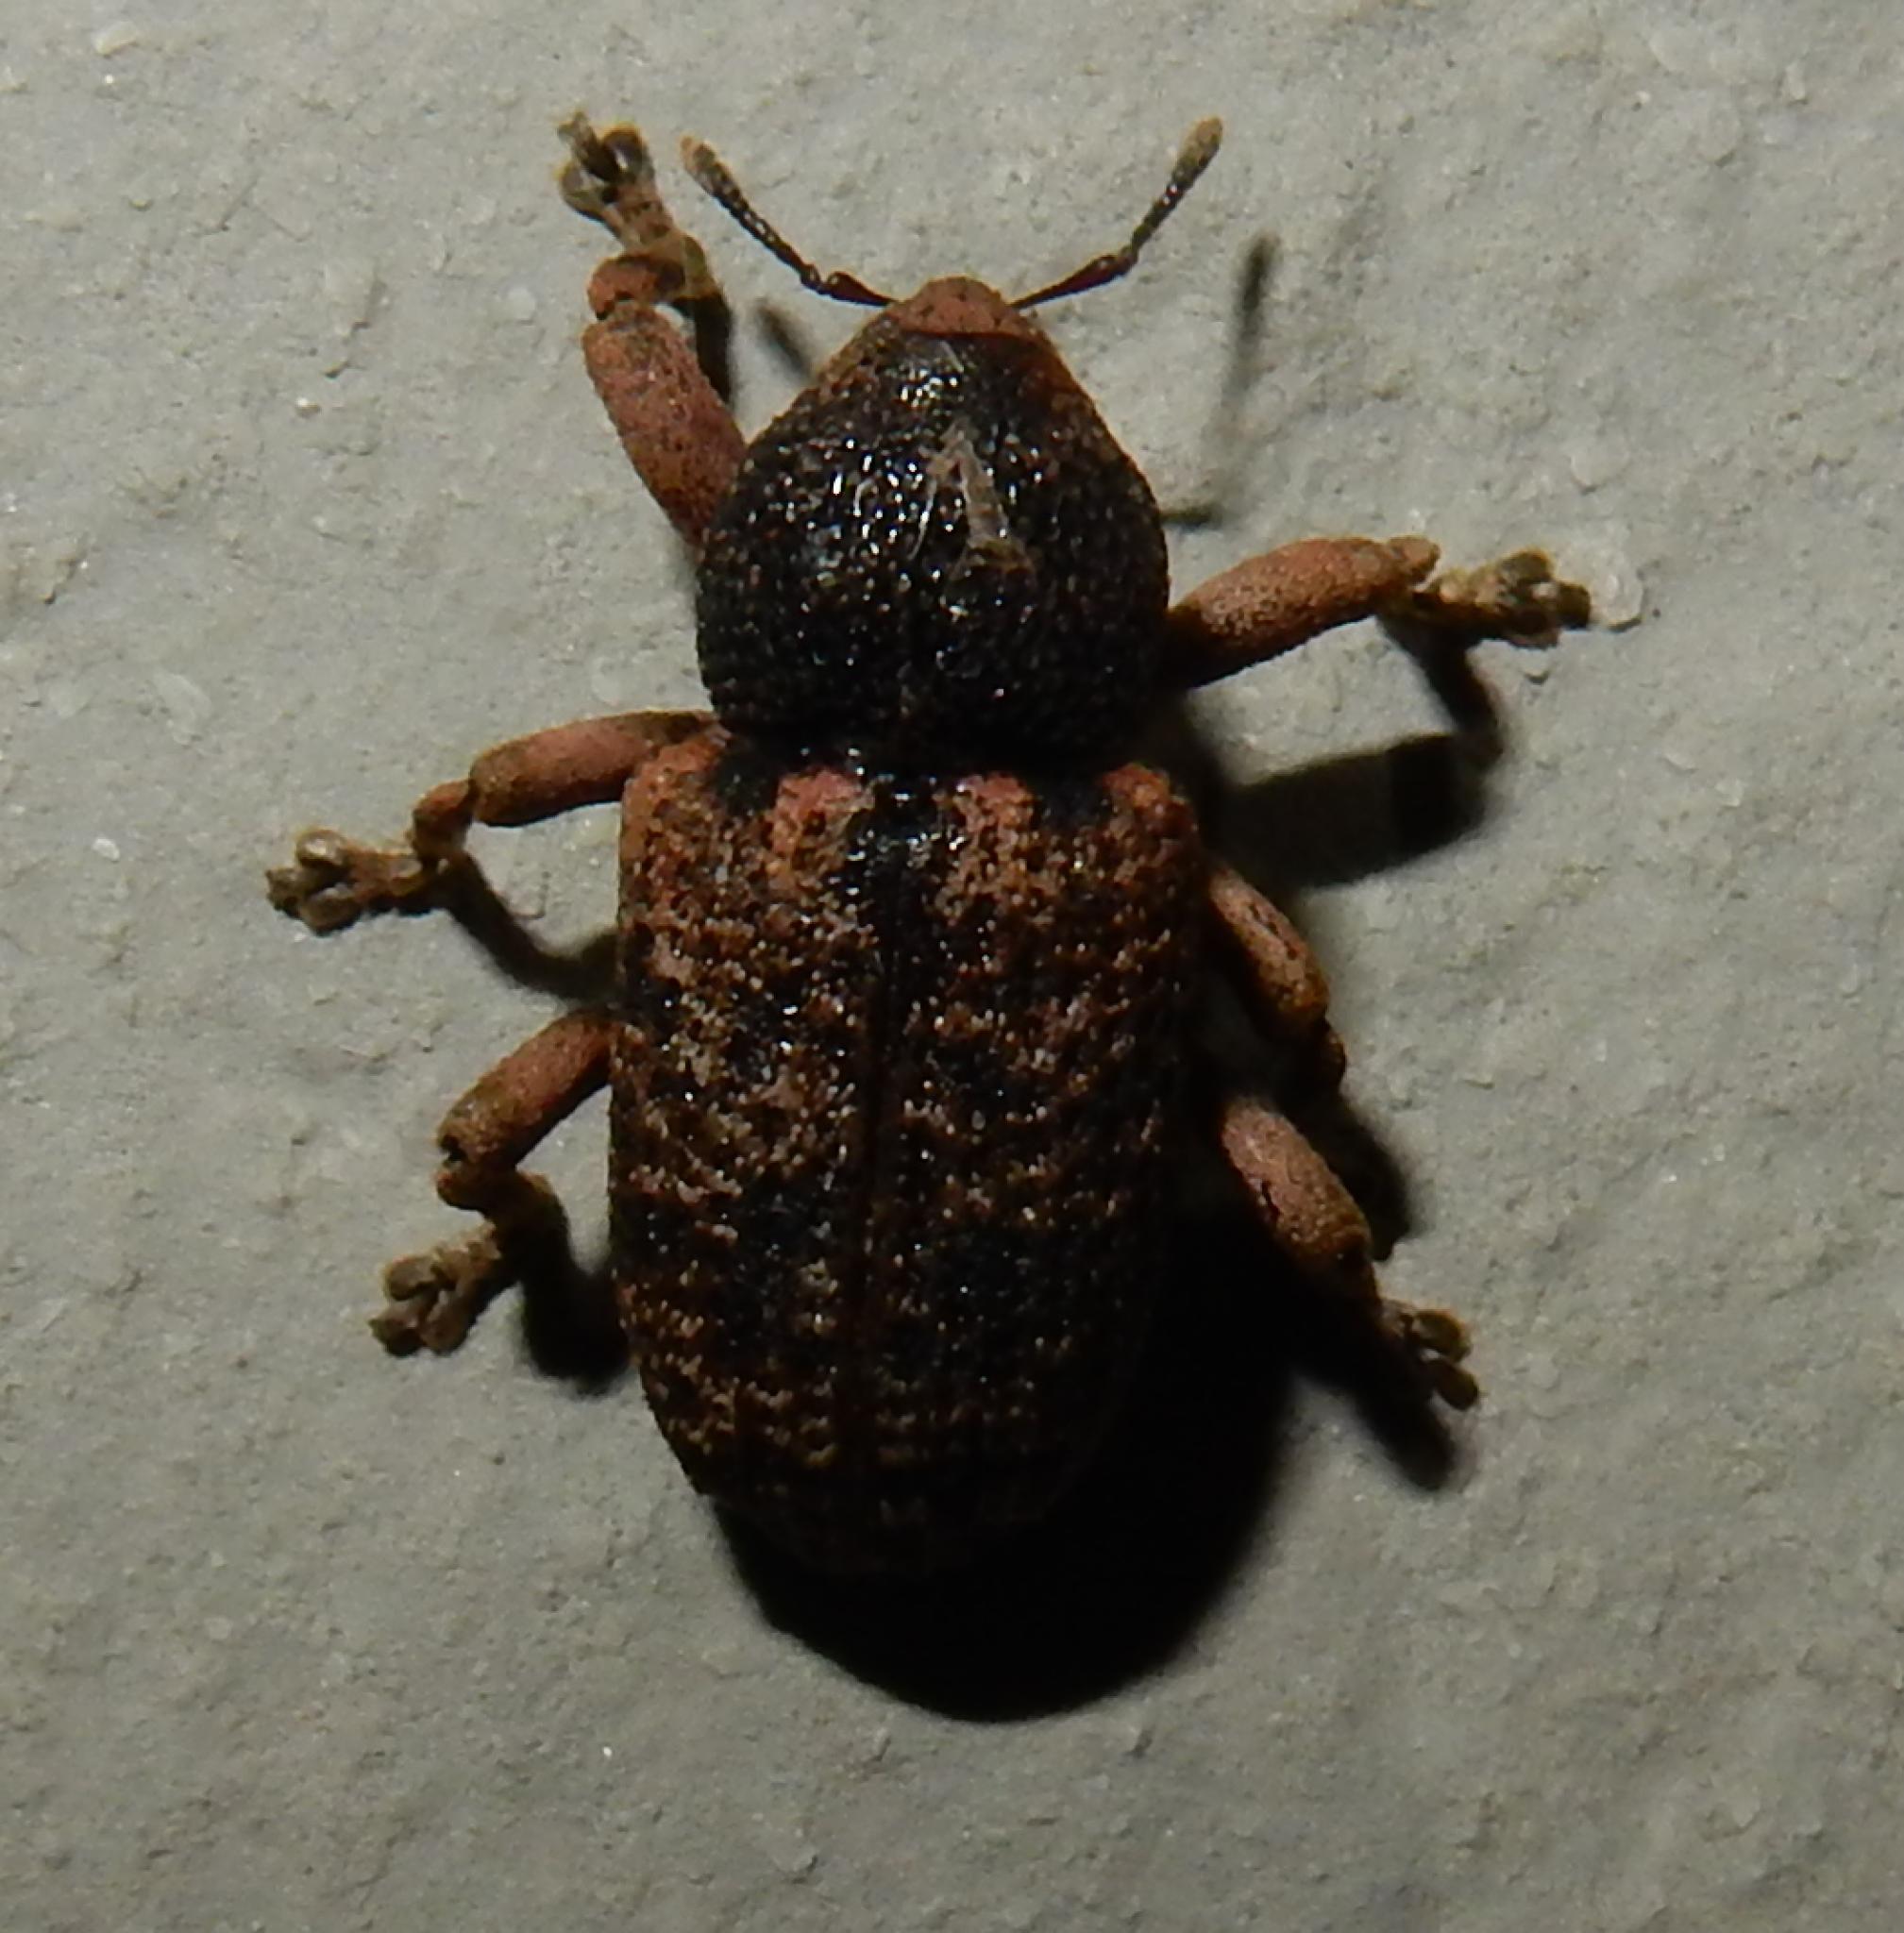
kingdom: Animalia
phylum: Arthropoda
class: Insecta
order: Coleoptera
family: Curculionidae
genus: Rhadinomerus
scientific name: Rhadinomerus
